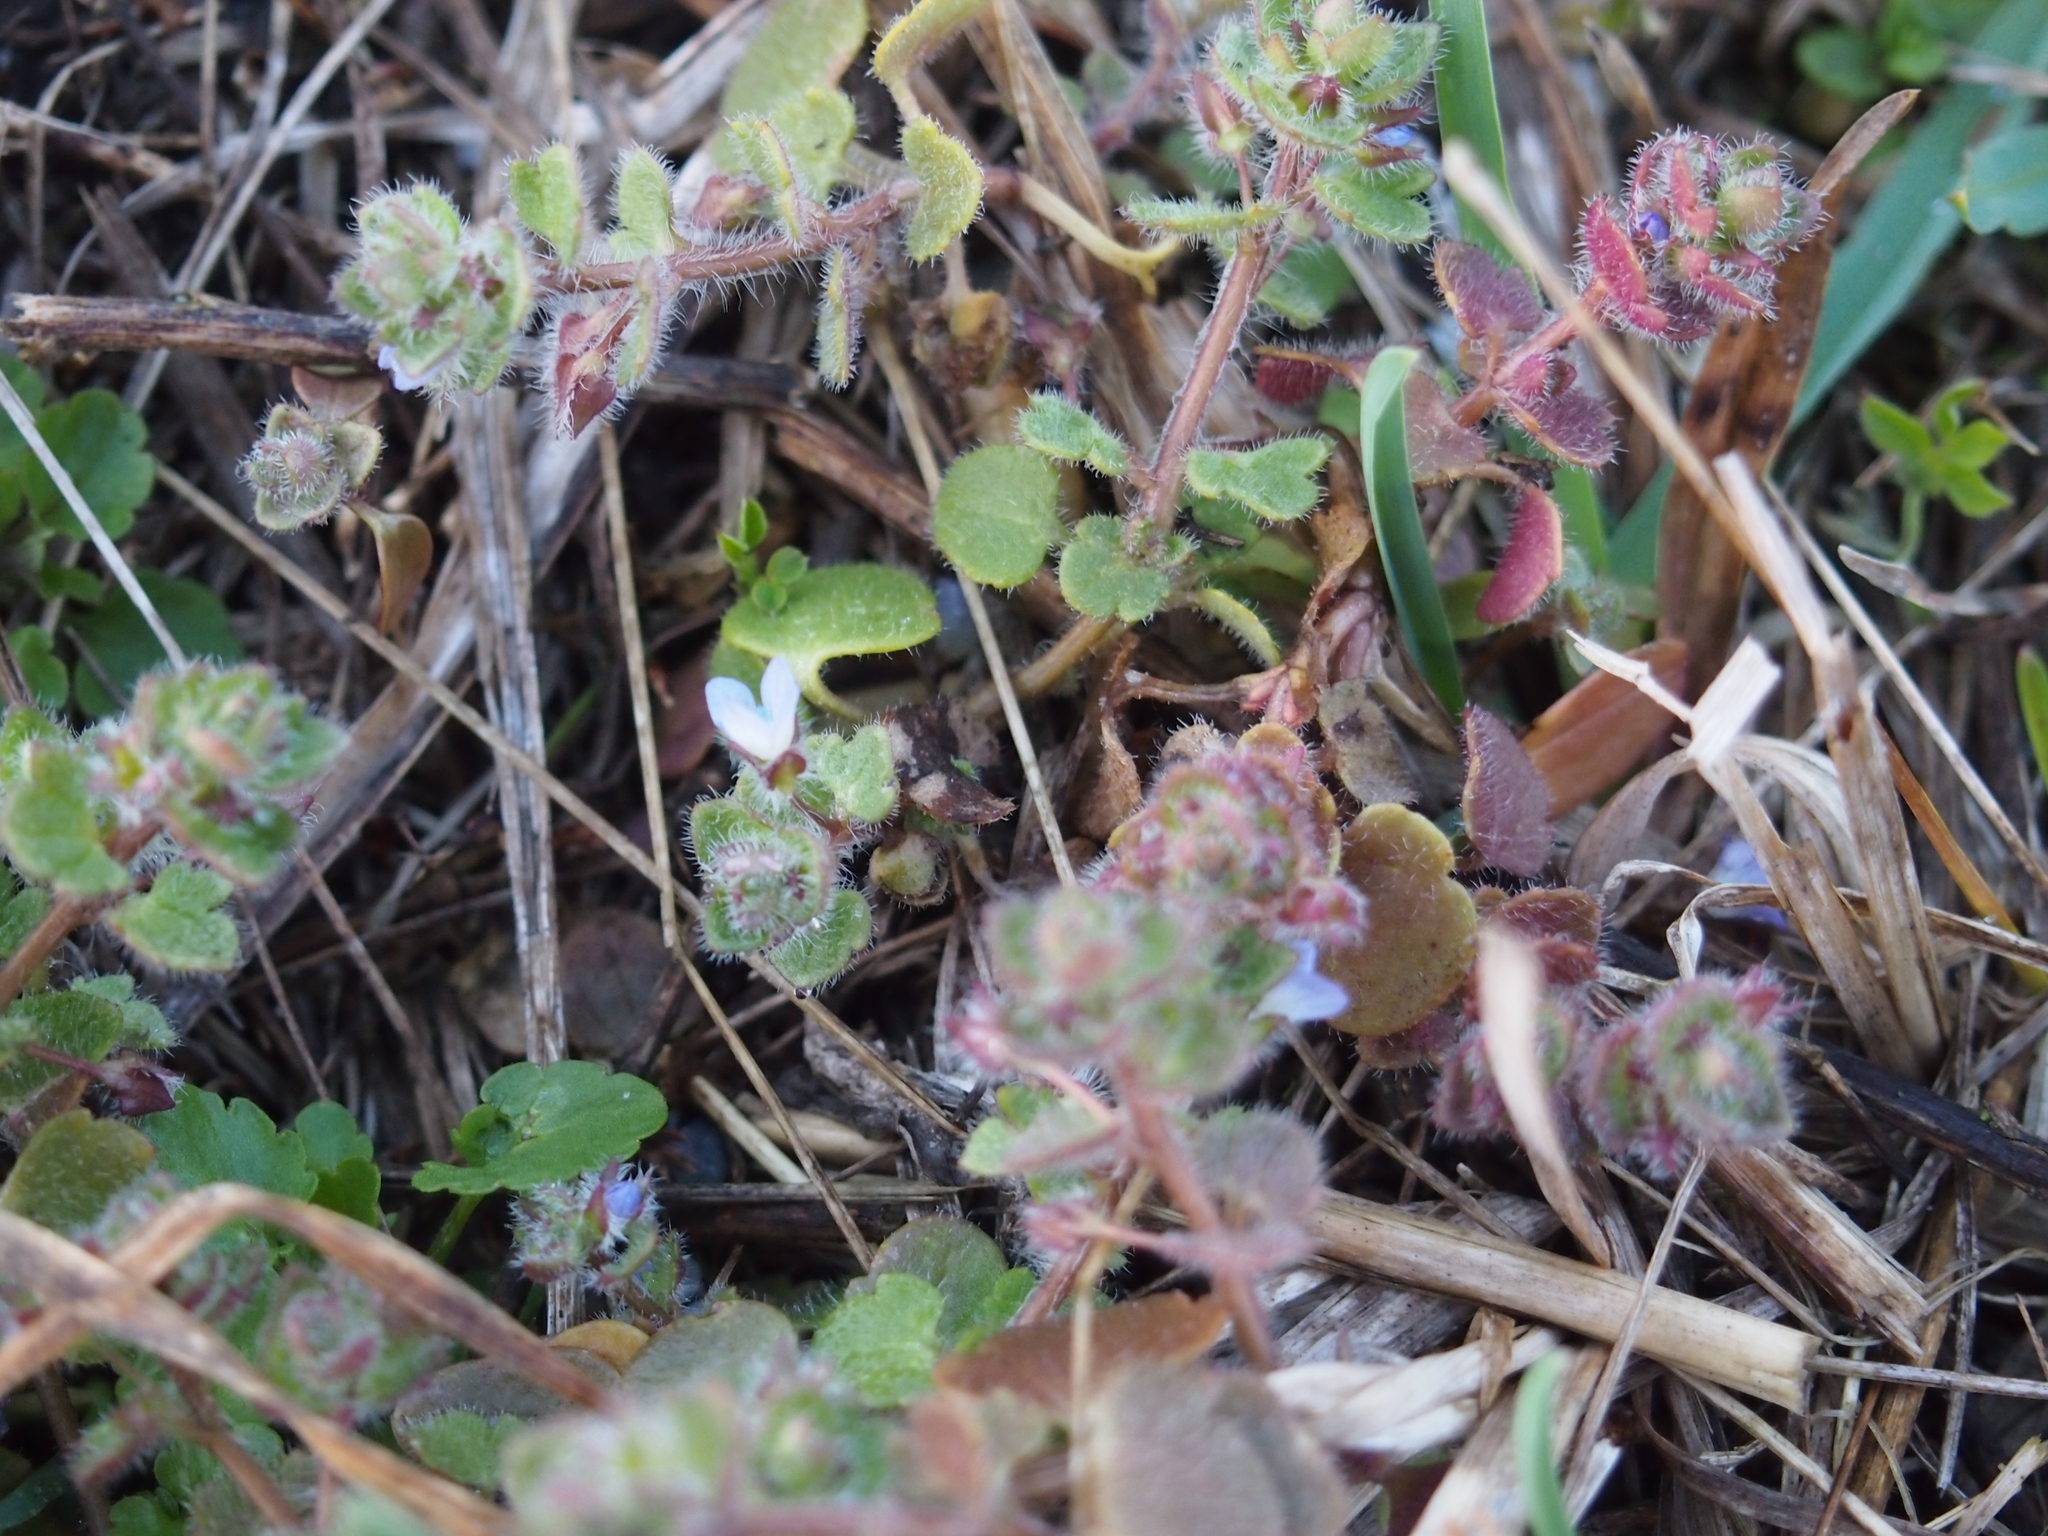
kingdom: Plantae
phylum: Tracheophyta
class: Magnoliopsida
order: Lamiales
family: Plantaginaceae
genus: Veronica
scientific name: Veronica hederifolia
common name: Ivy-leaved speedwell
